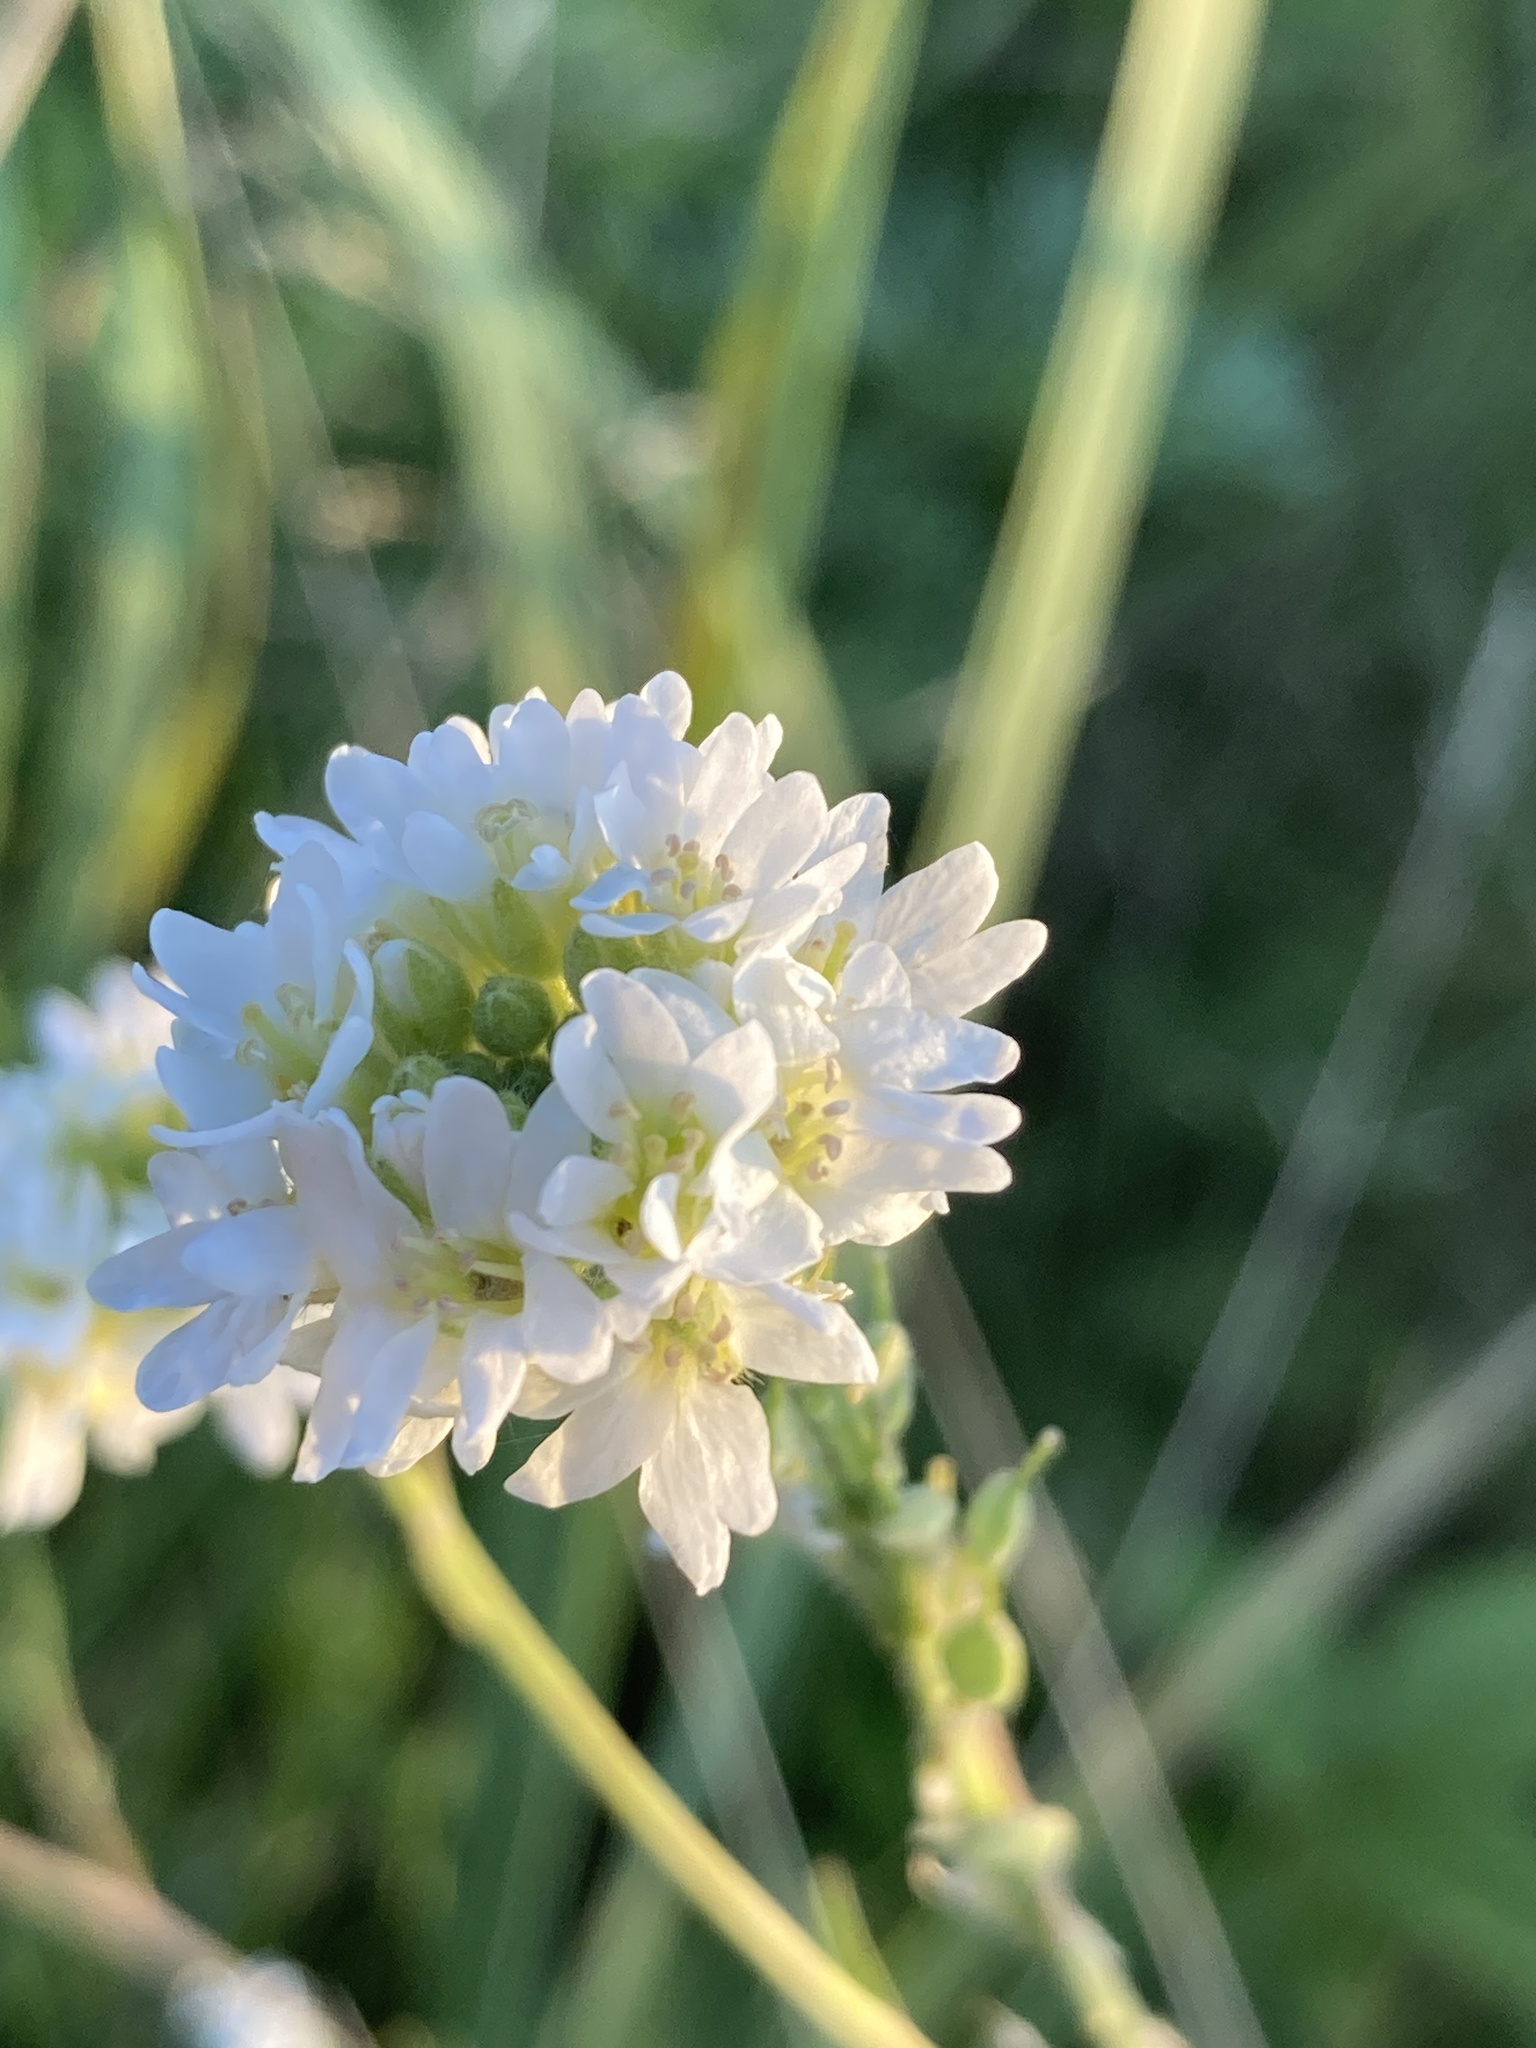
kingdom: Plantae
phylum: Tracheophyta
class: Magnoliopsida
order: Brassicales
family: Brassicaceae
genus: Berteroa
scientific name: Berteroa incana
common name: Hoary alison
